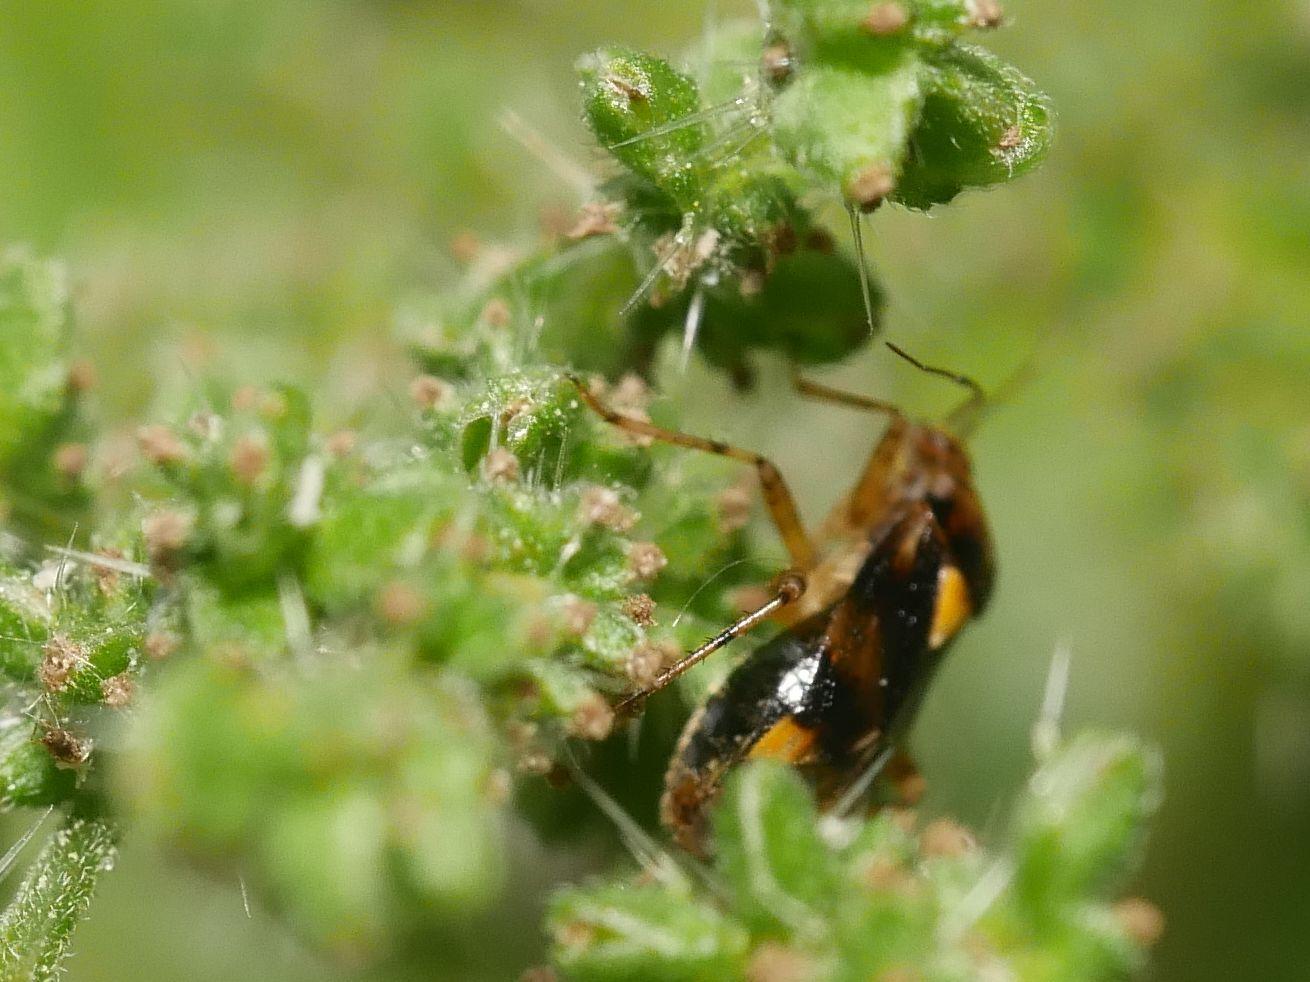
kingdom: Animalia
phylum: Arthropoda
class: Insecta
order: Hemiptera
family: Miridae
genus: Liocoris
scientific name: Liocoris tripustulatus
